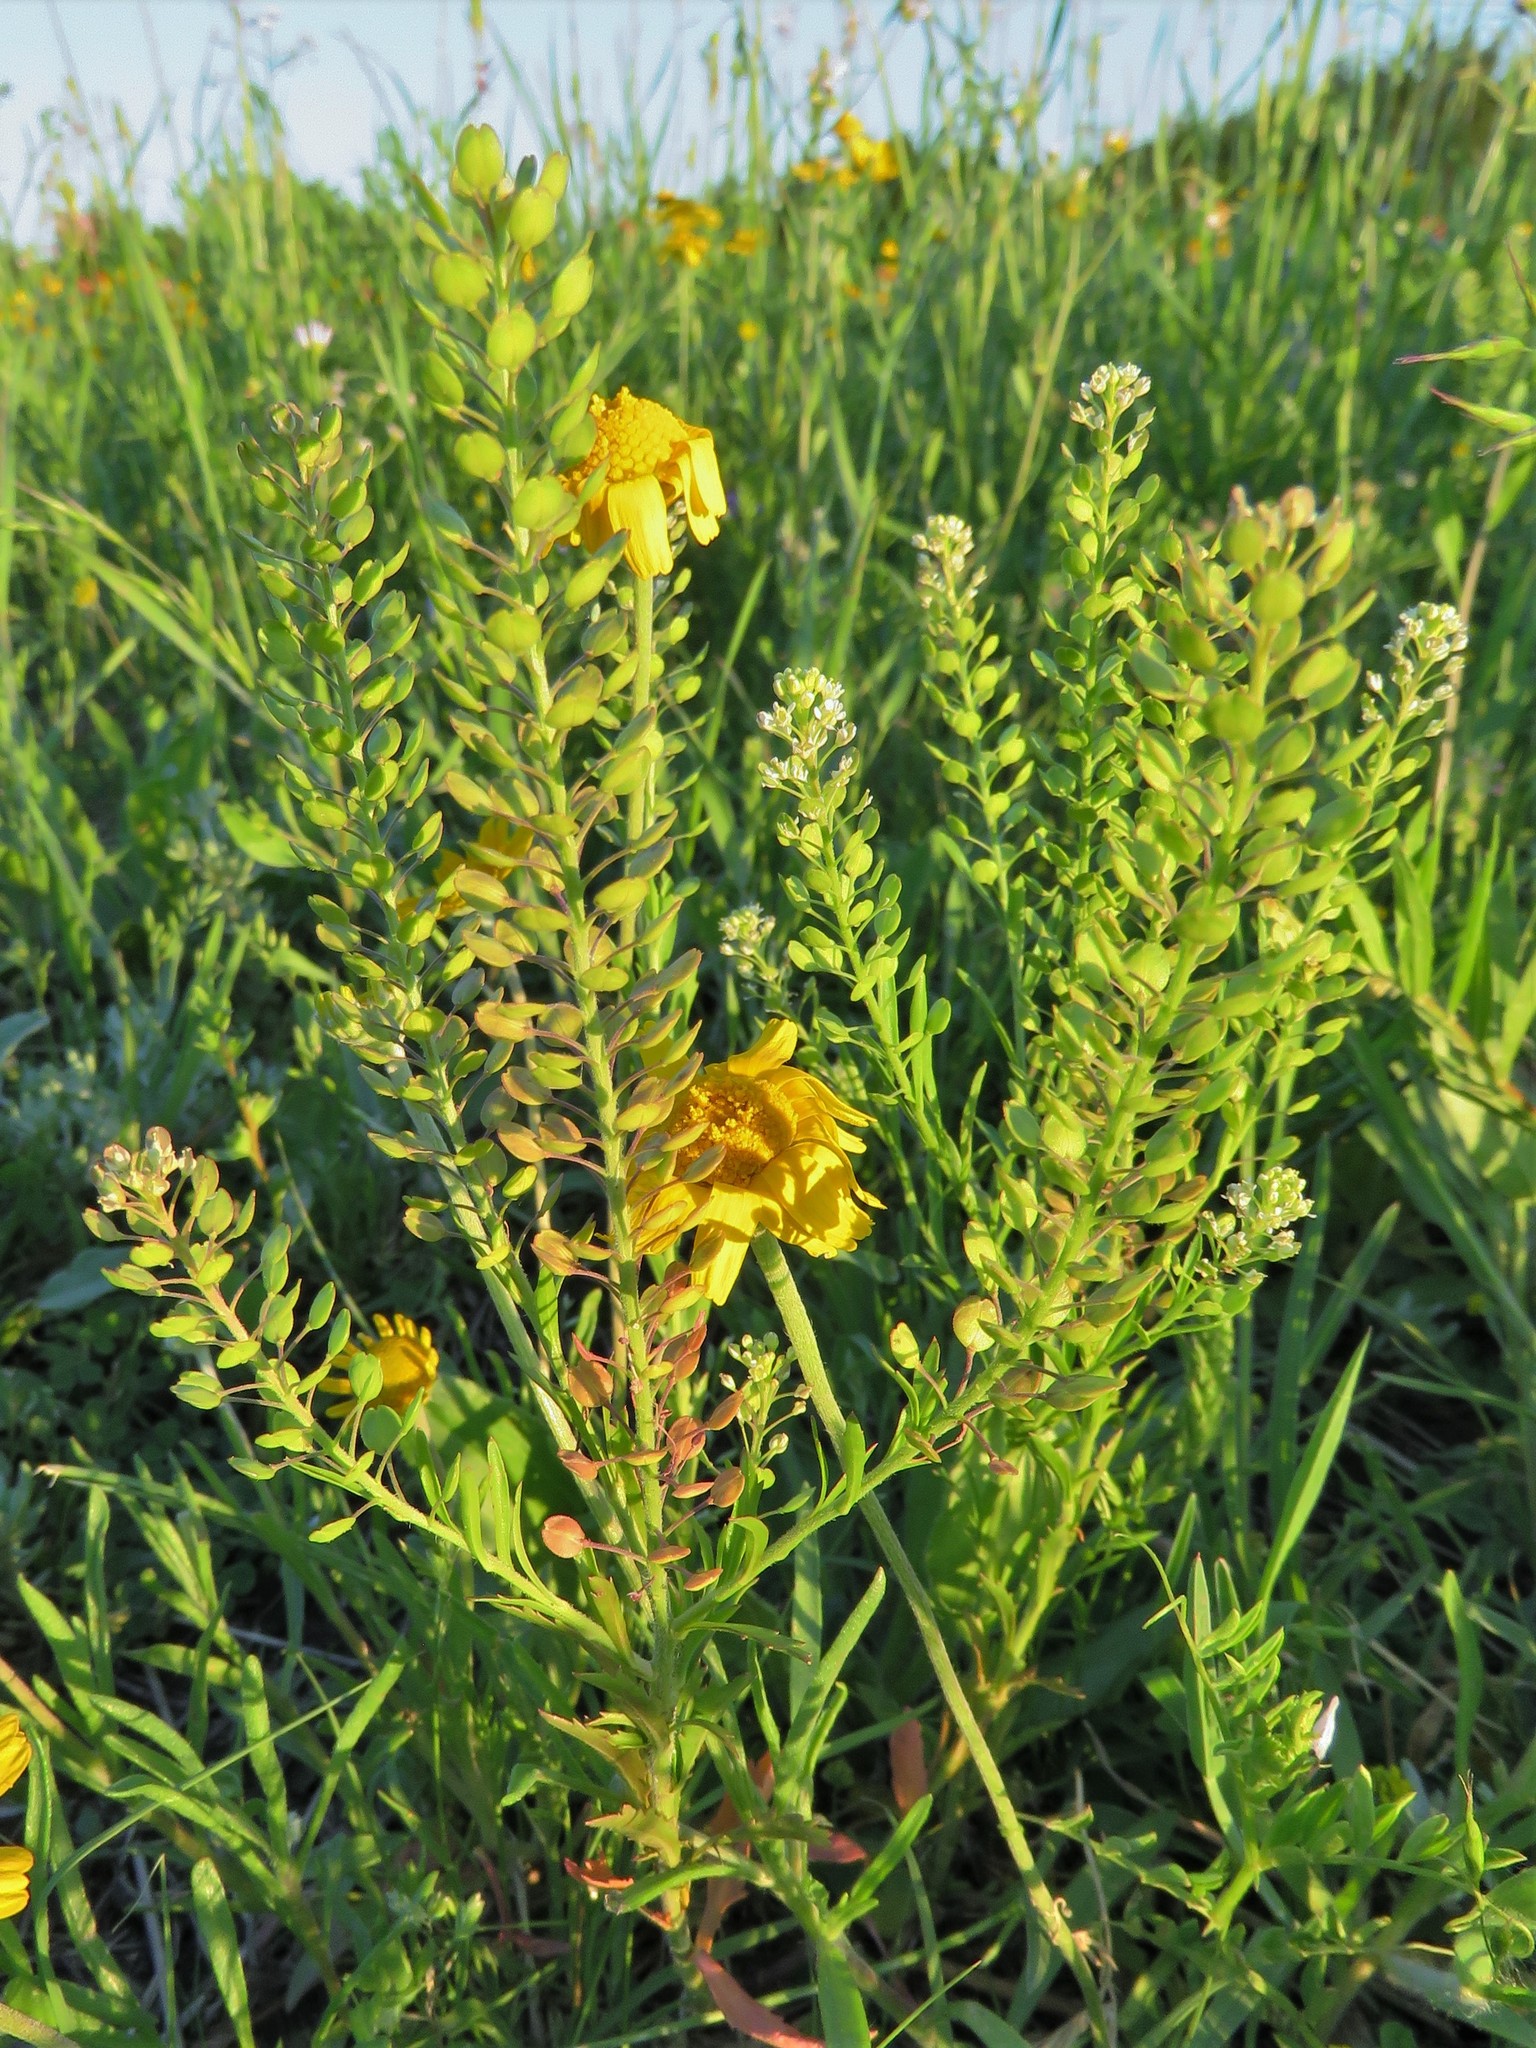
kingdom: Plantae
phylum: Tracheophyta
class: Magnoliopsida
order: Brassicales
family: Brassicaceae
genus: Lepidium
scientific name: Lepidium virginicum
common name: Least pepperwort
